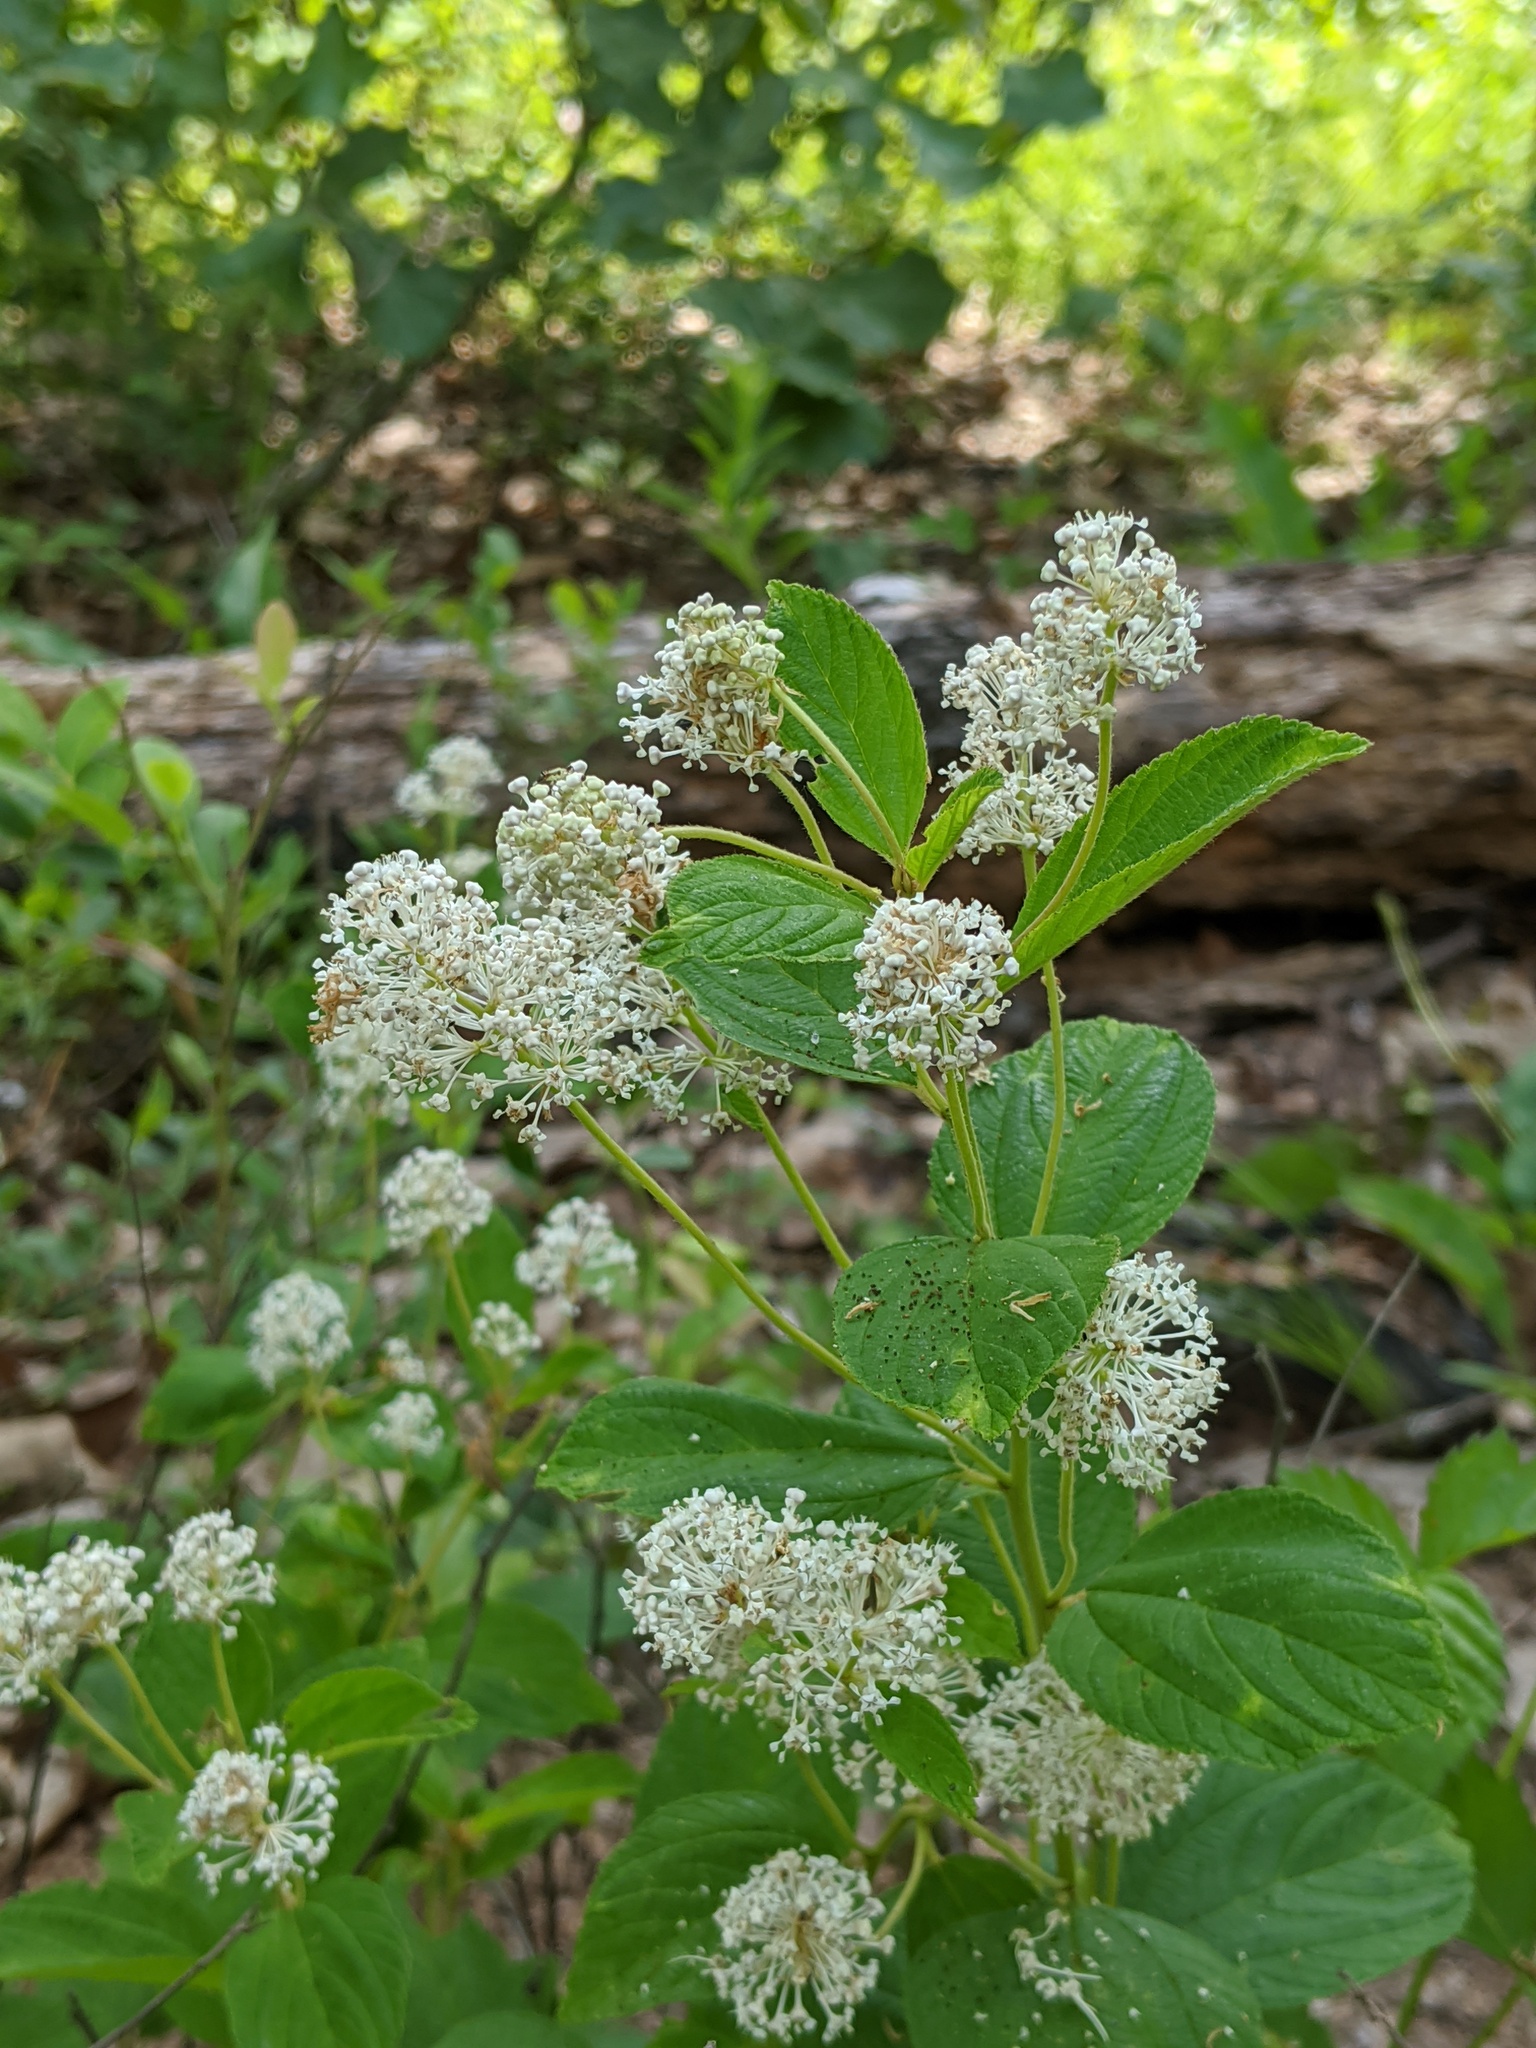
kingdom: Plantae
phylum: Tracheophyta
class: Magnoliopsida
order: Rosales
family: Rhamnaceae
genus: Ceanothus
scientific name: Ceanothus americanus
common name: Redroot
